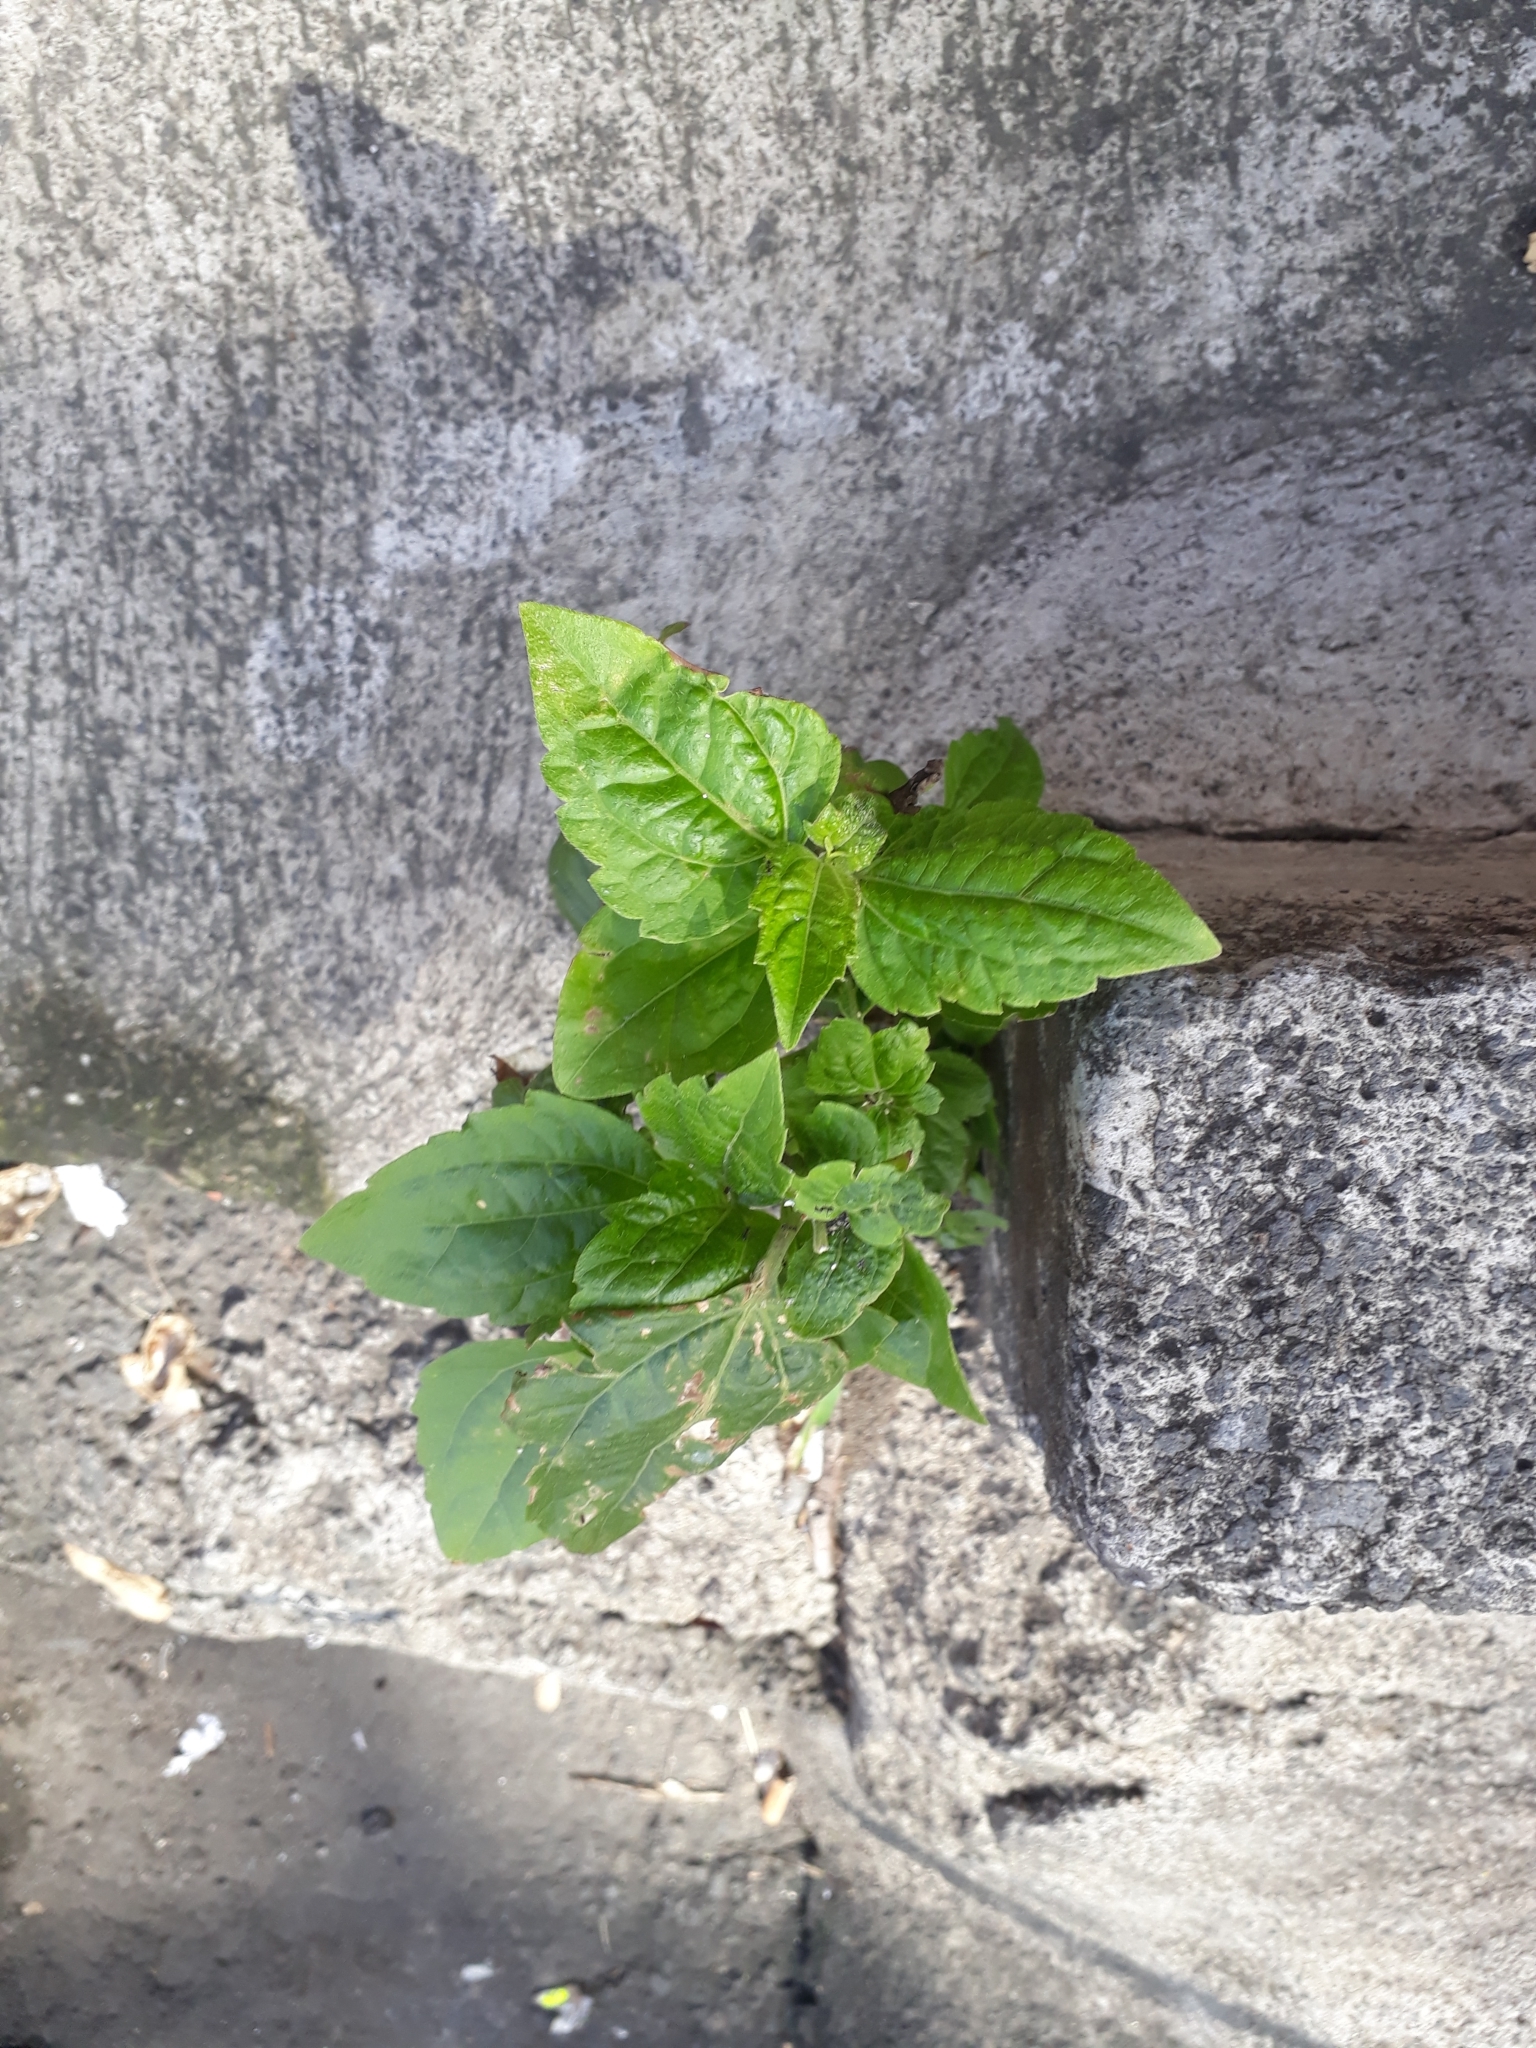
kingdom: Plantae
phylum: Tracheophyta
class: Magnoliopsida
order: Asterales
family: Asteraceae
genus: Chromolaena
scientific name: Chromolaena odorata
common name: Siamweed
